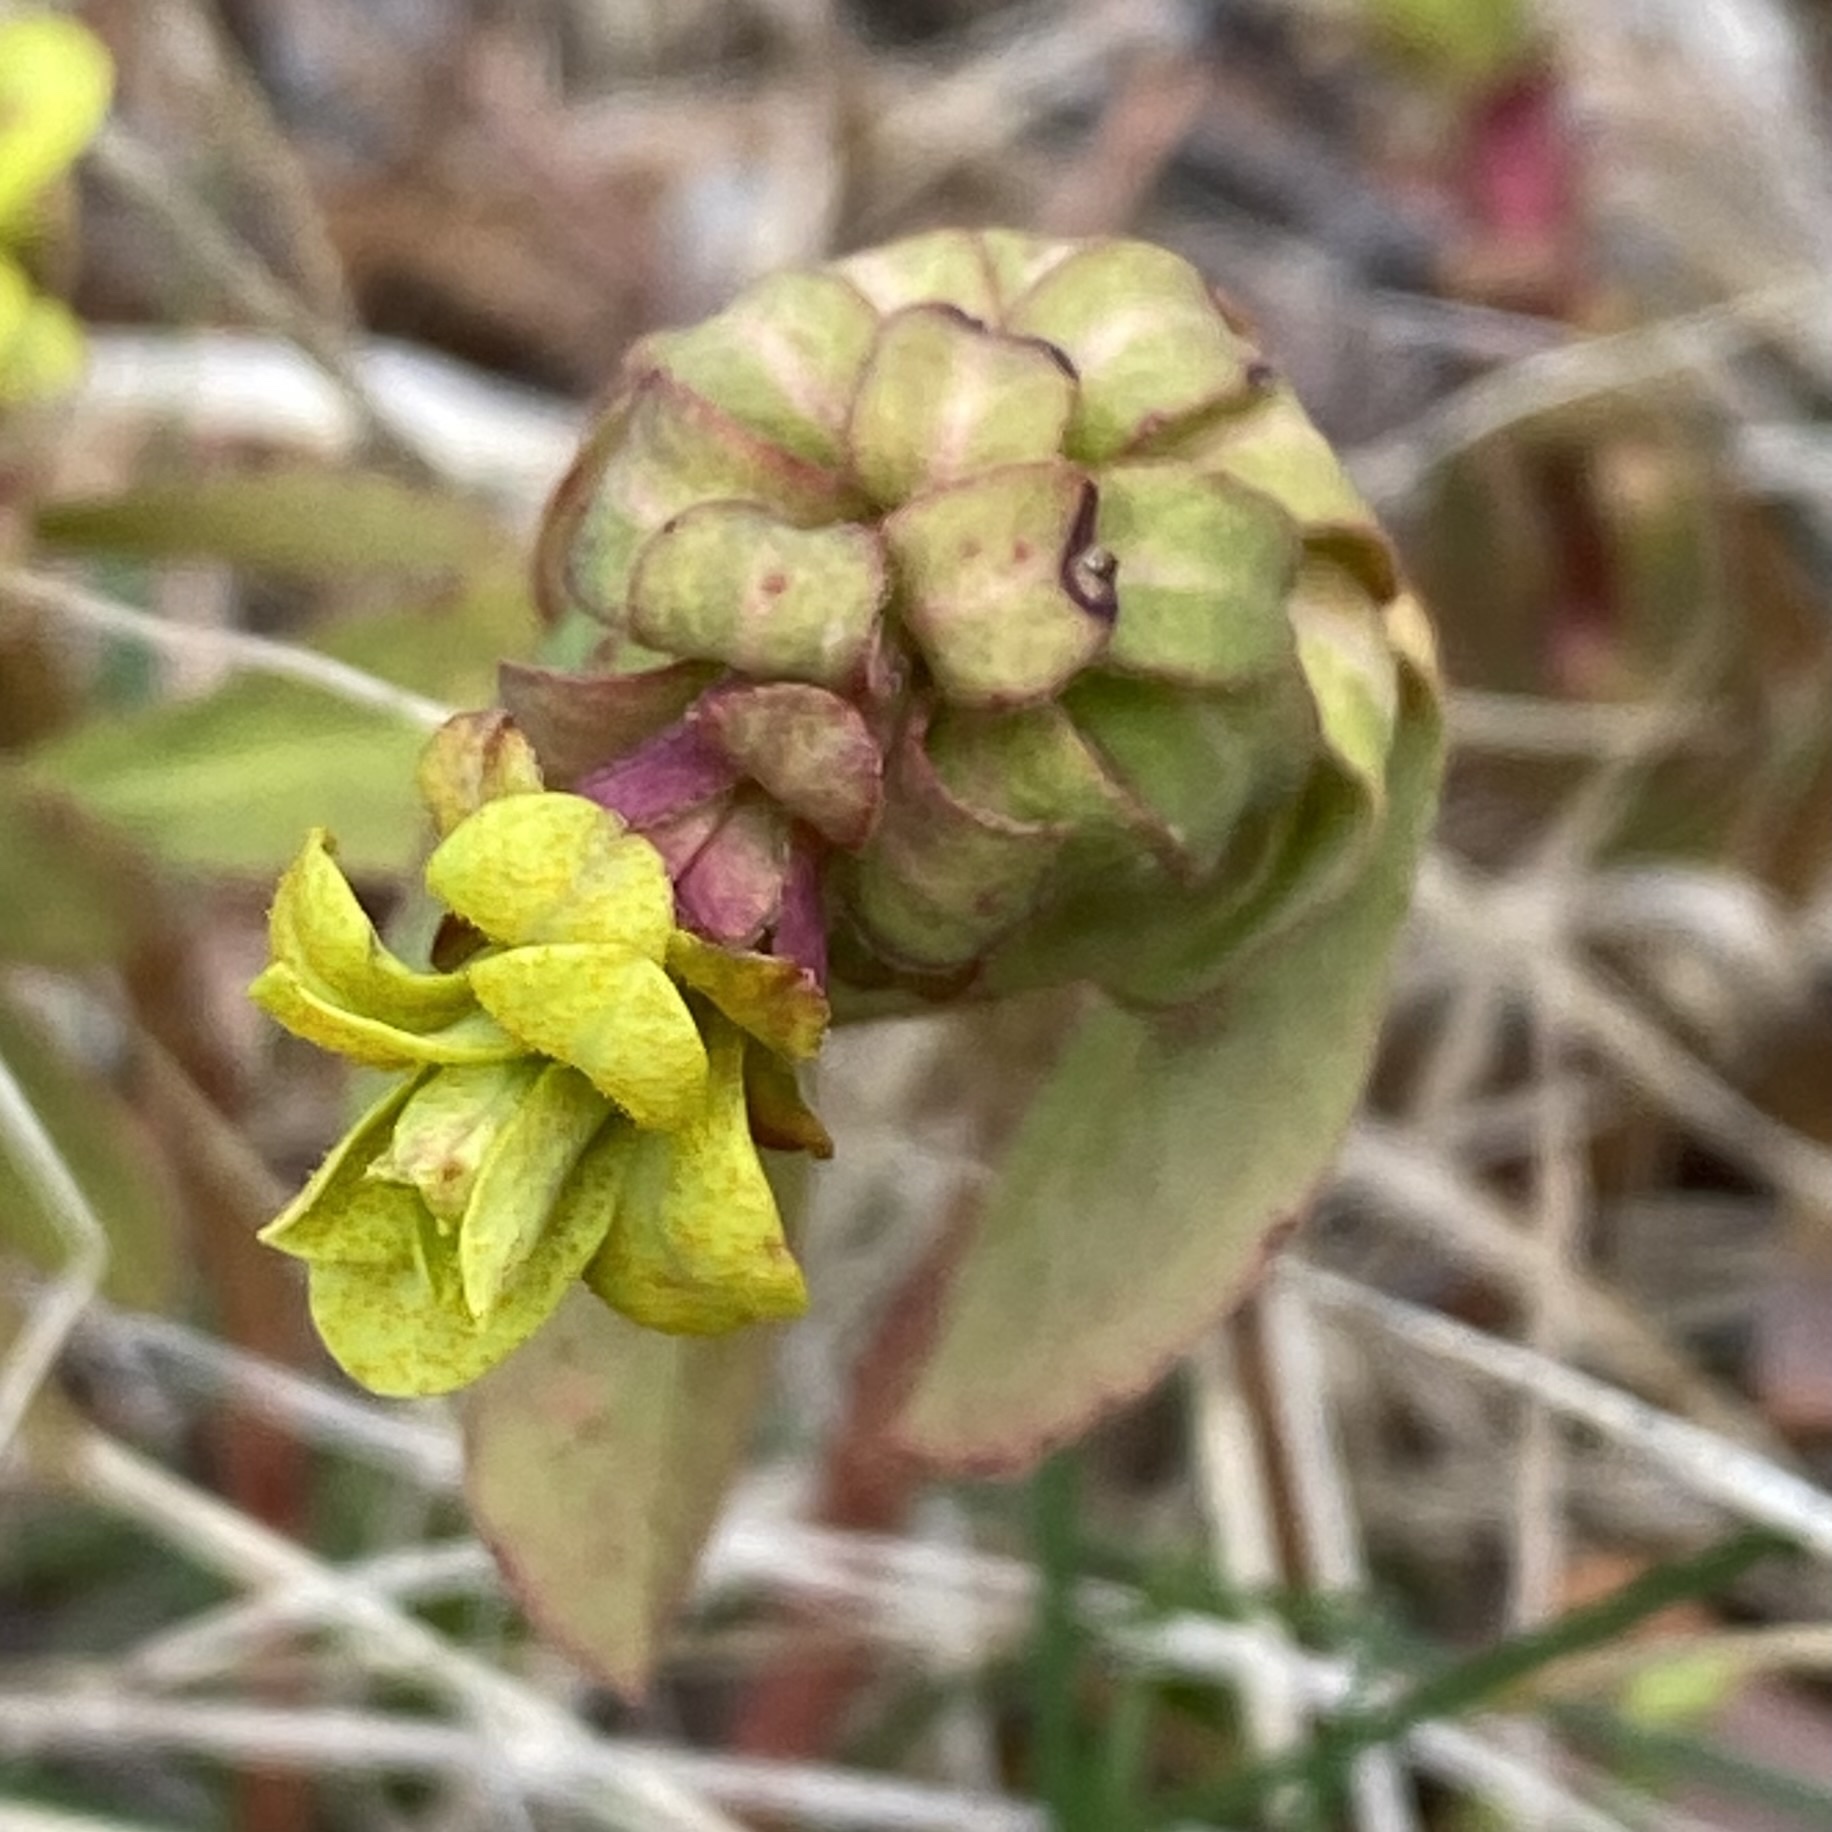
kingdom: Plantae
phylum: Tracheophyta
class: Magnoliopsida
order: Malpighiales
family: Euphorbiaceae
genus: Euphorbia
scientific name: Euphorbia amygdaloides
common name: Wood spurge
